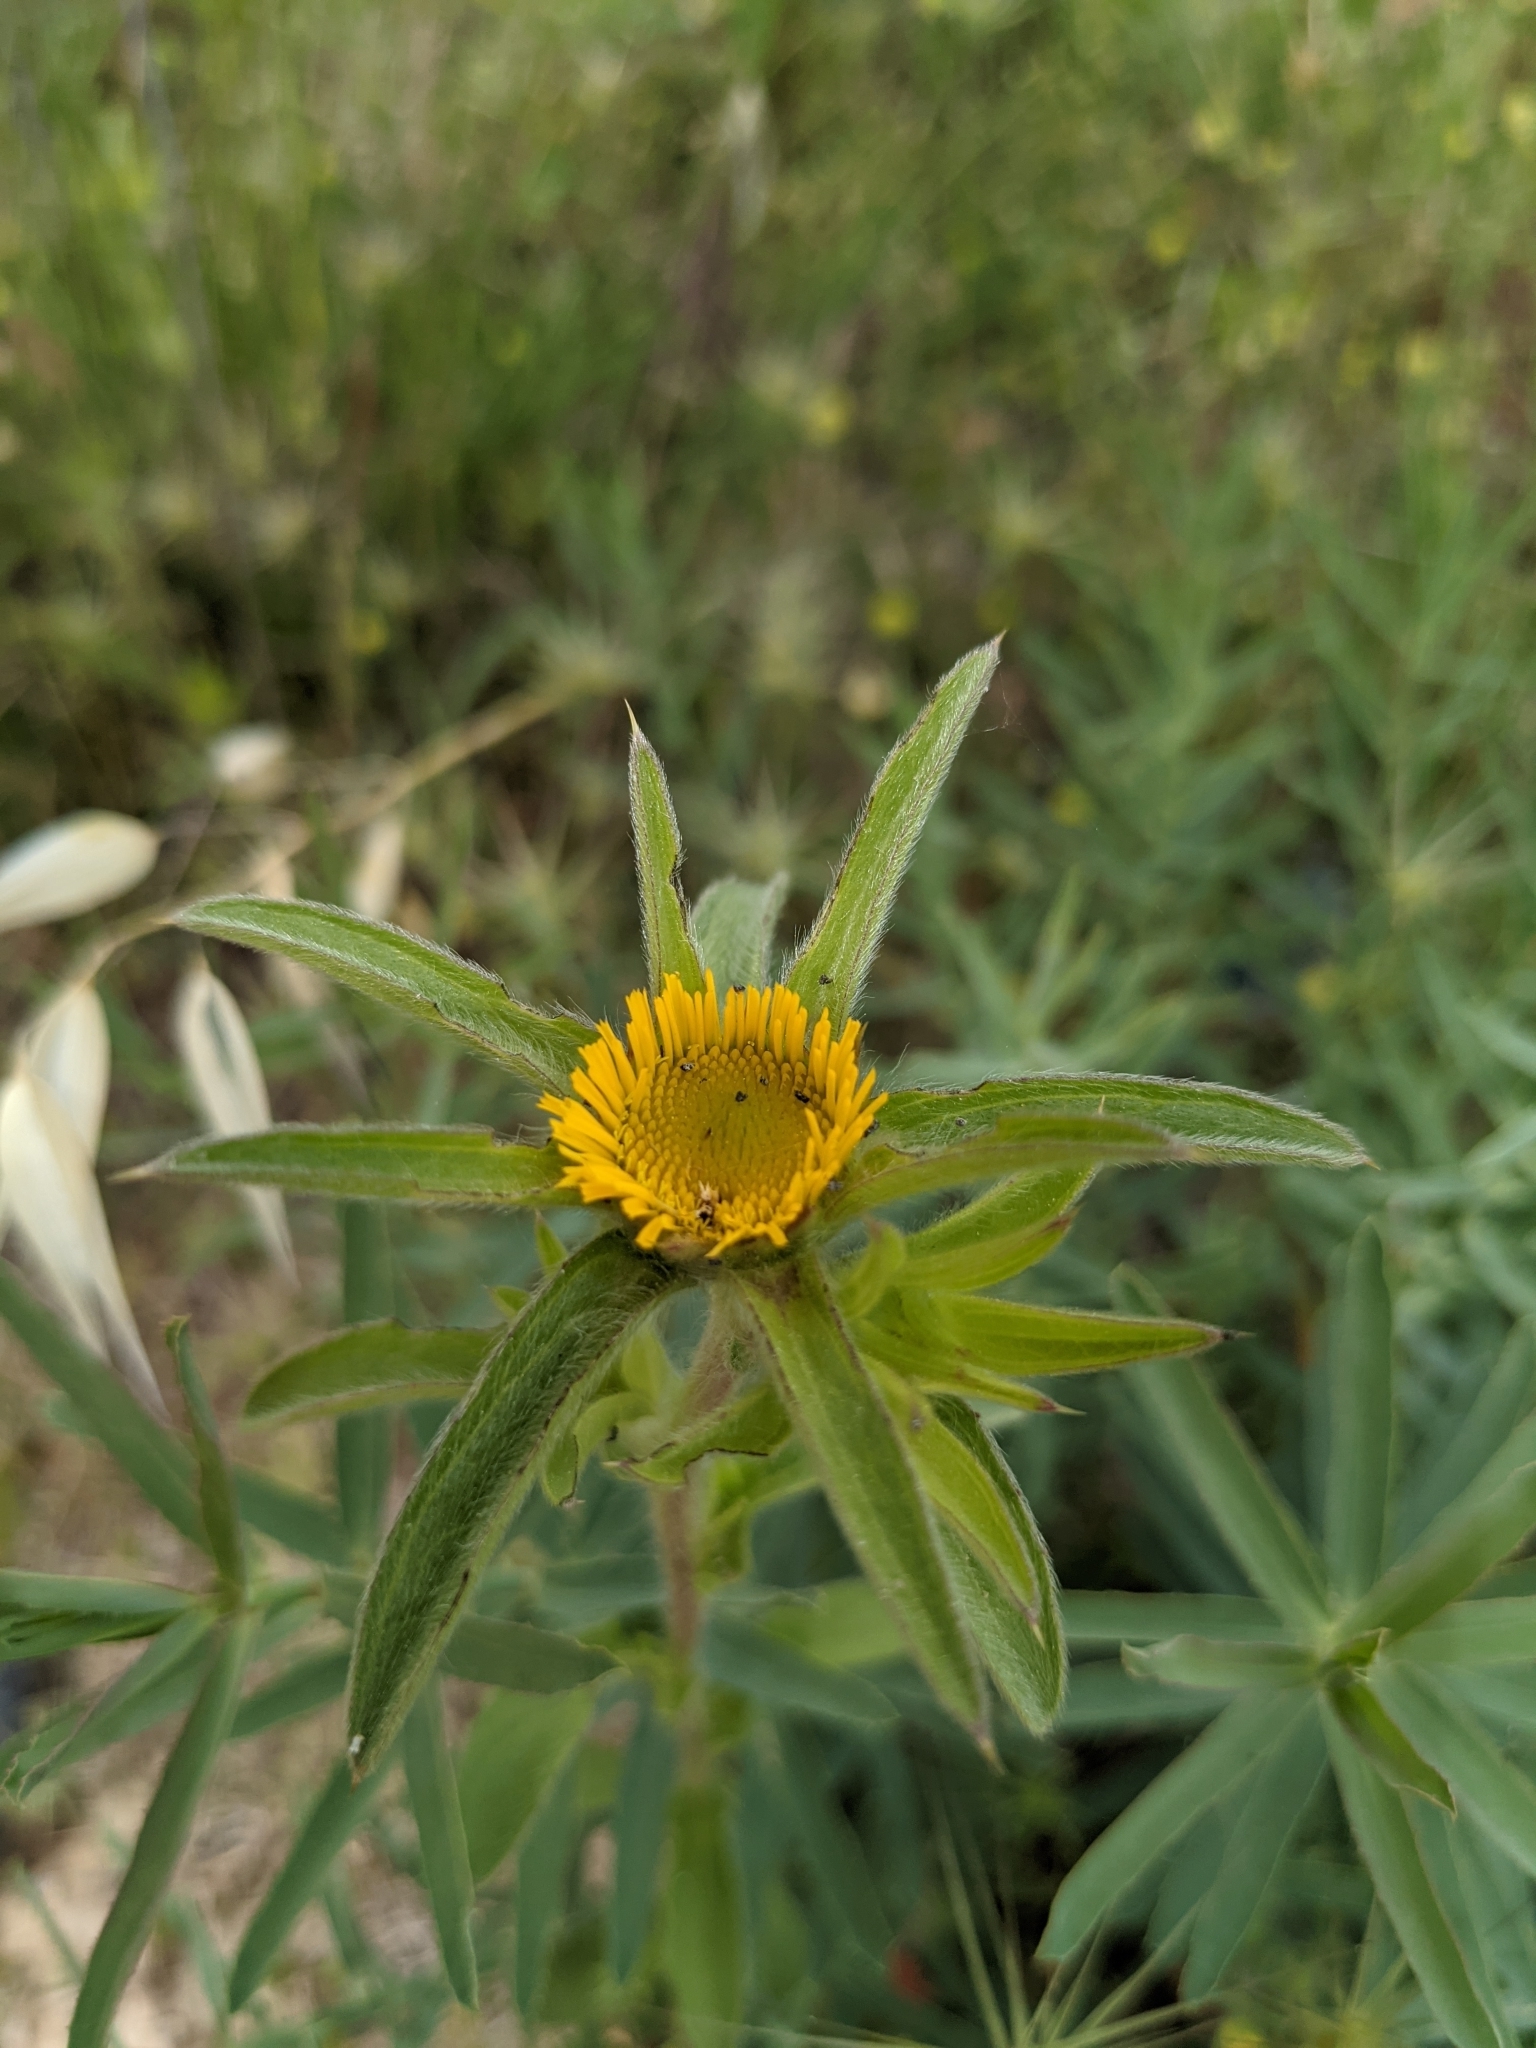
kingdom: Plantae
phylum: Tracheophyta
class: Magnoliopsida
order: Asterales
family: Asteraceae
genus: Pallenis
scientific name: Pallenis spinosa
